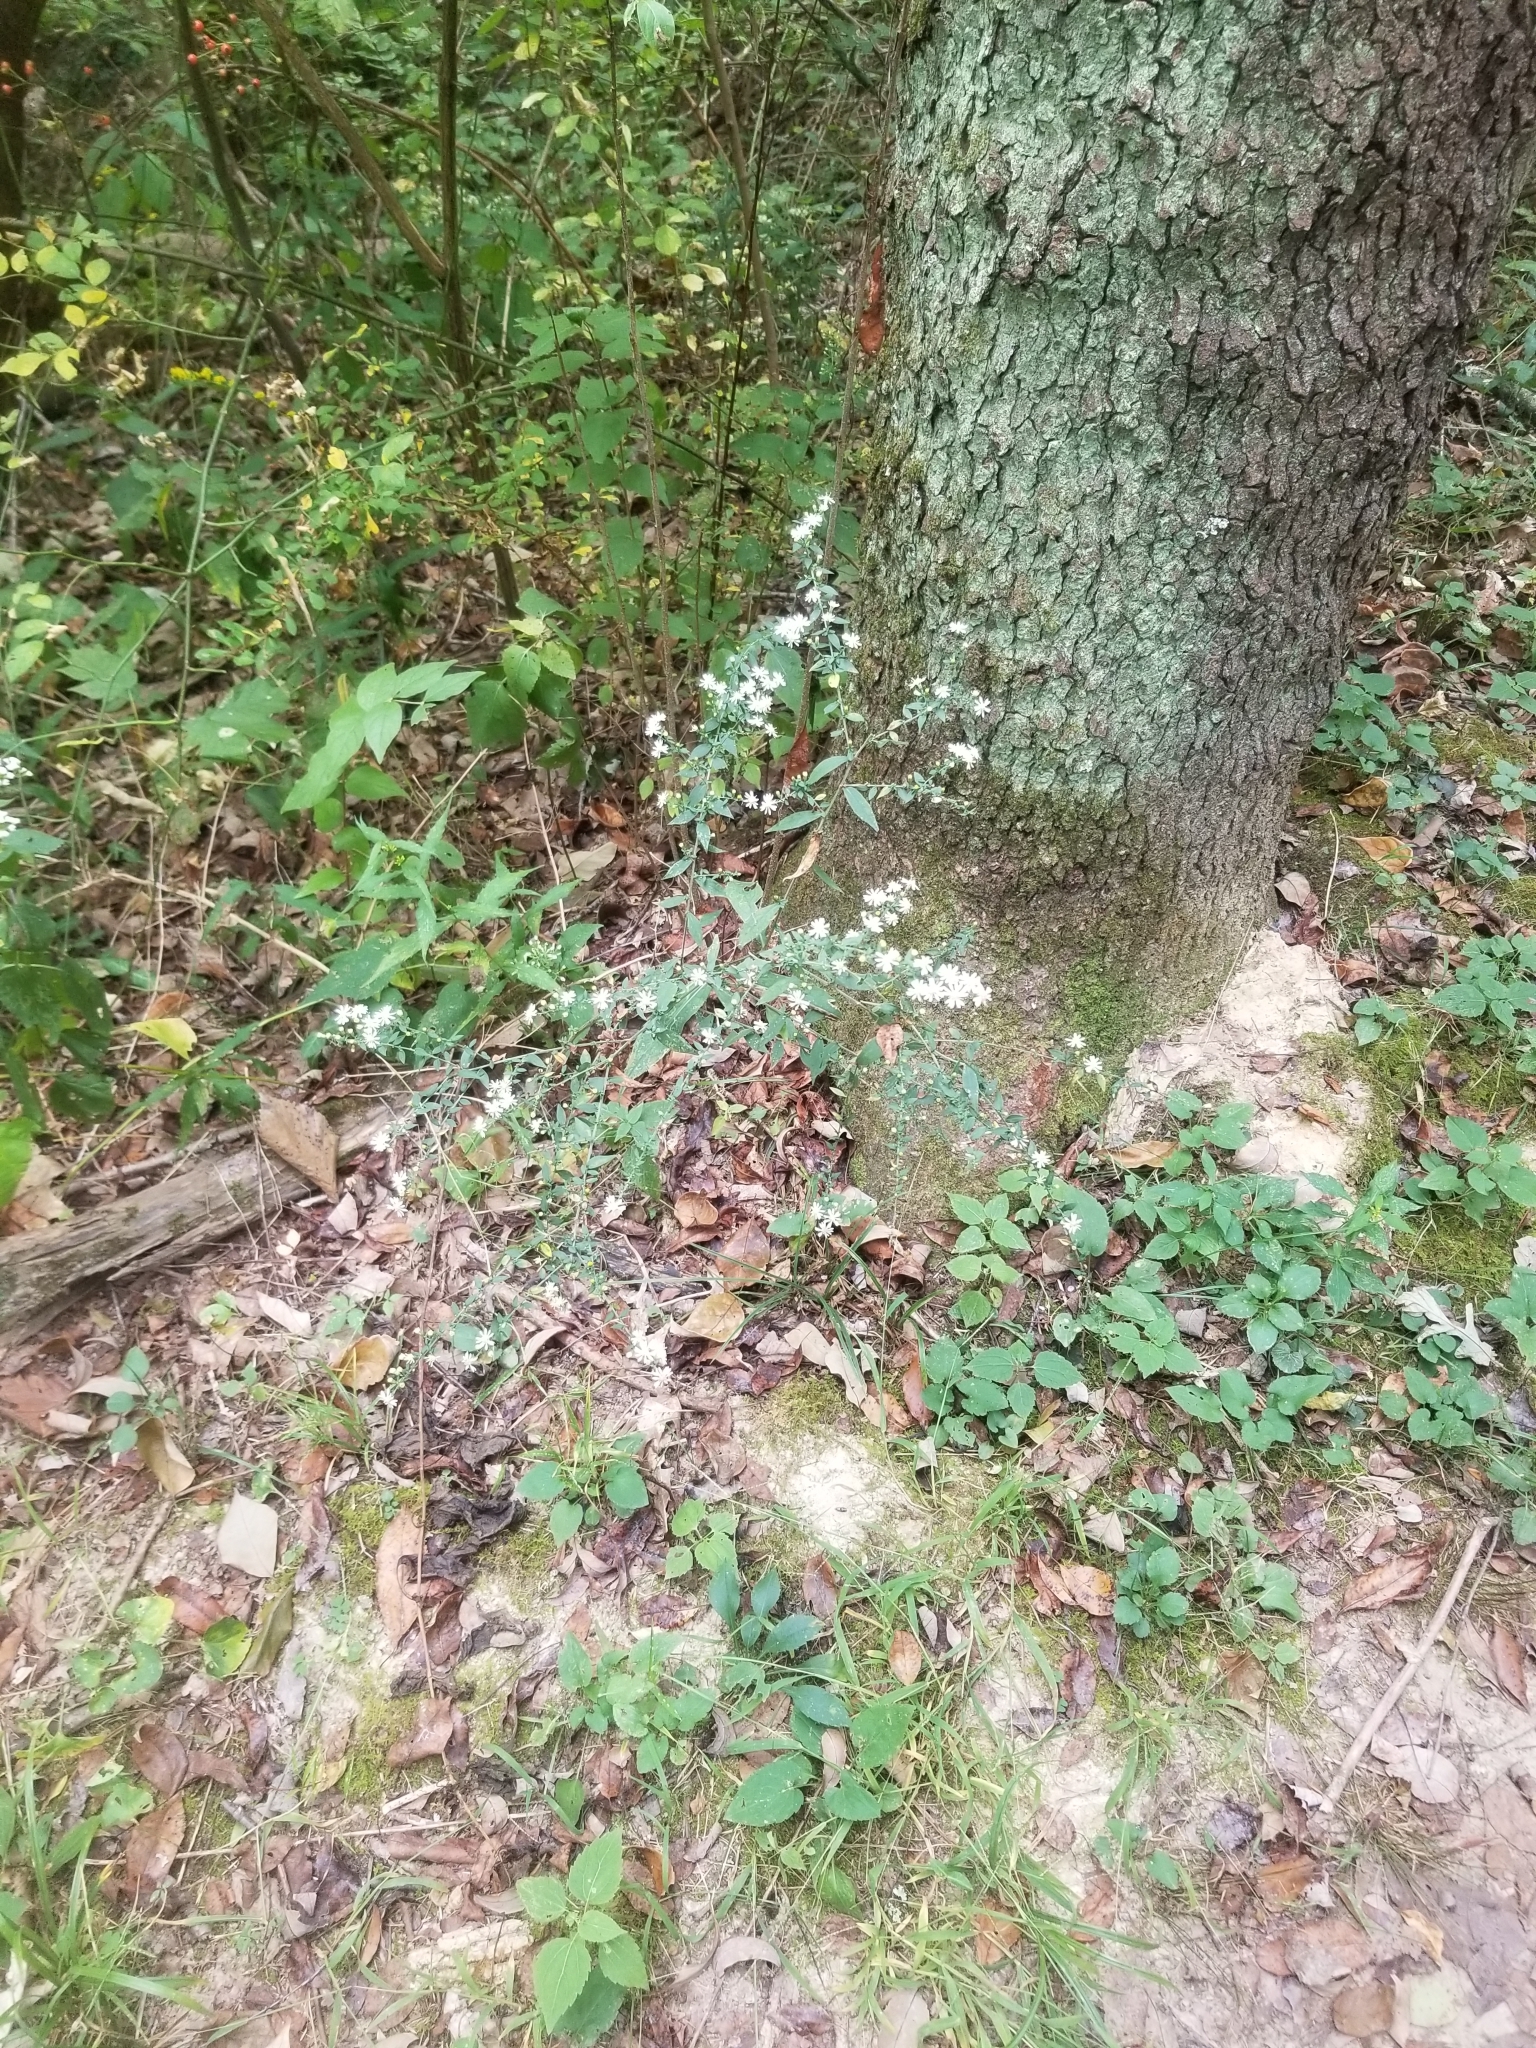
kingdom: Plantae
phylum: Tracheophyta
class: Magnoliopsida
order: Asterales
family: Asteraceae
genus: Symphyotrichum
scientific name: Symphyotrichum lateriflorum
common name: Calico aster
